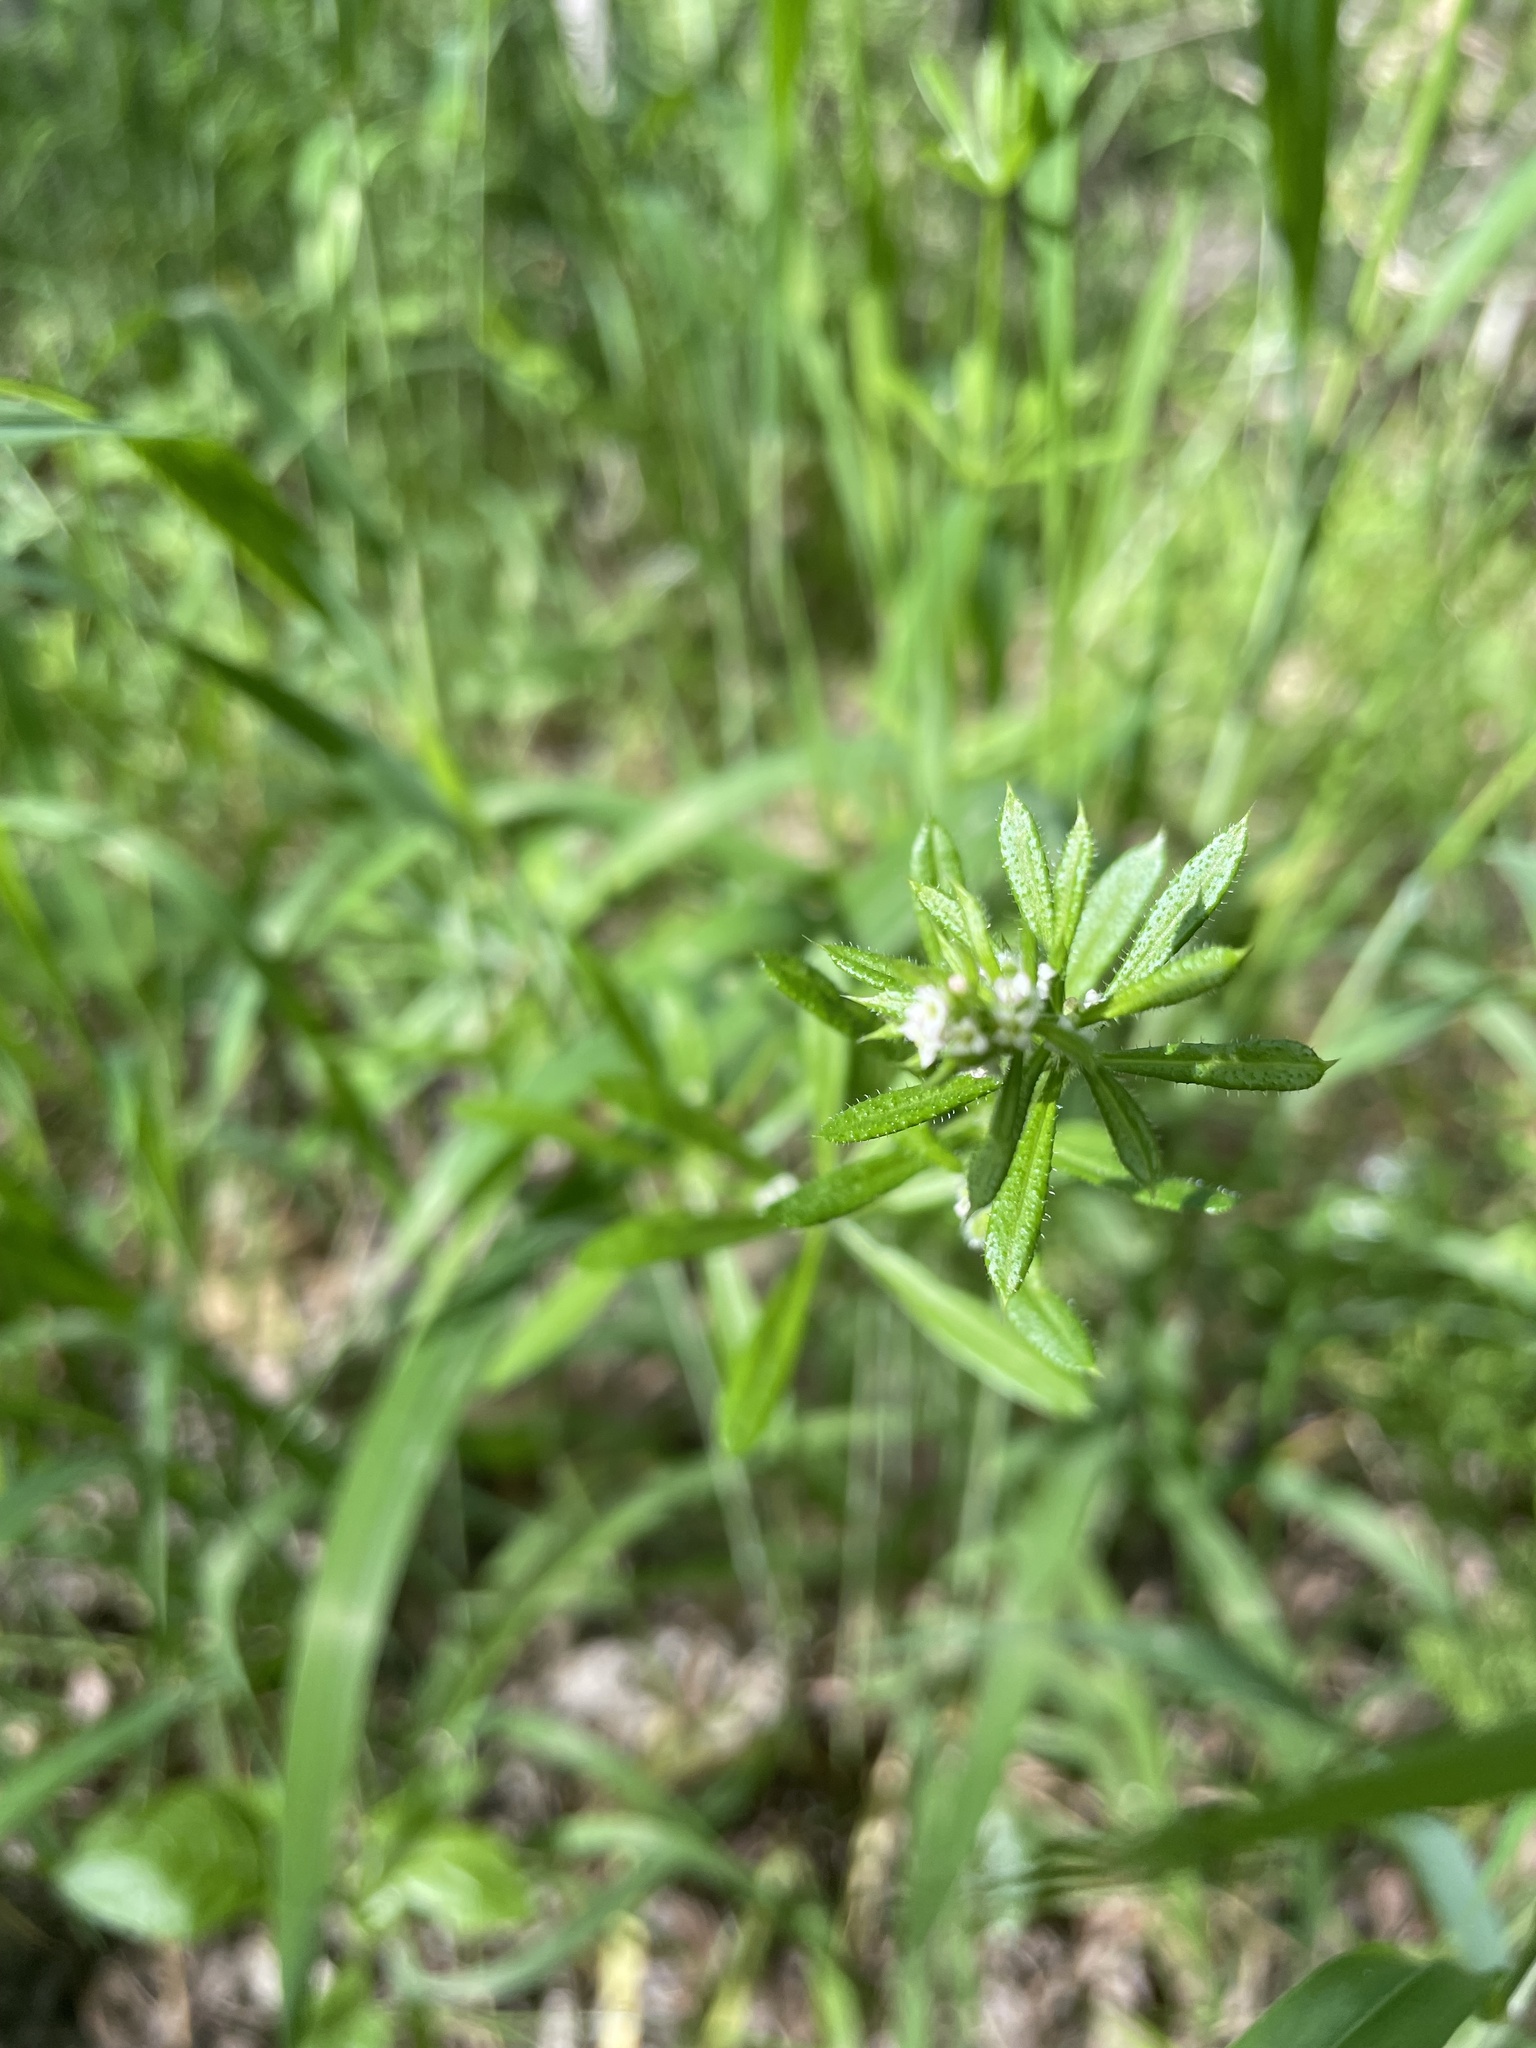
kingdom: Plantae
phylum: Tracheophyta
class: Magnoliopsida
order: Gentianales
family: Rubiaceae
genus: Galium
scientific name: Galium aparine
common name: Cleavers
